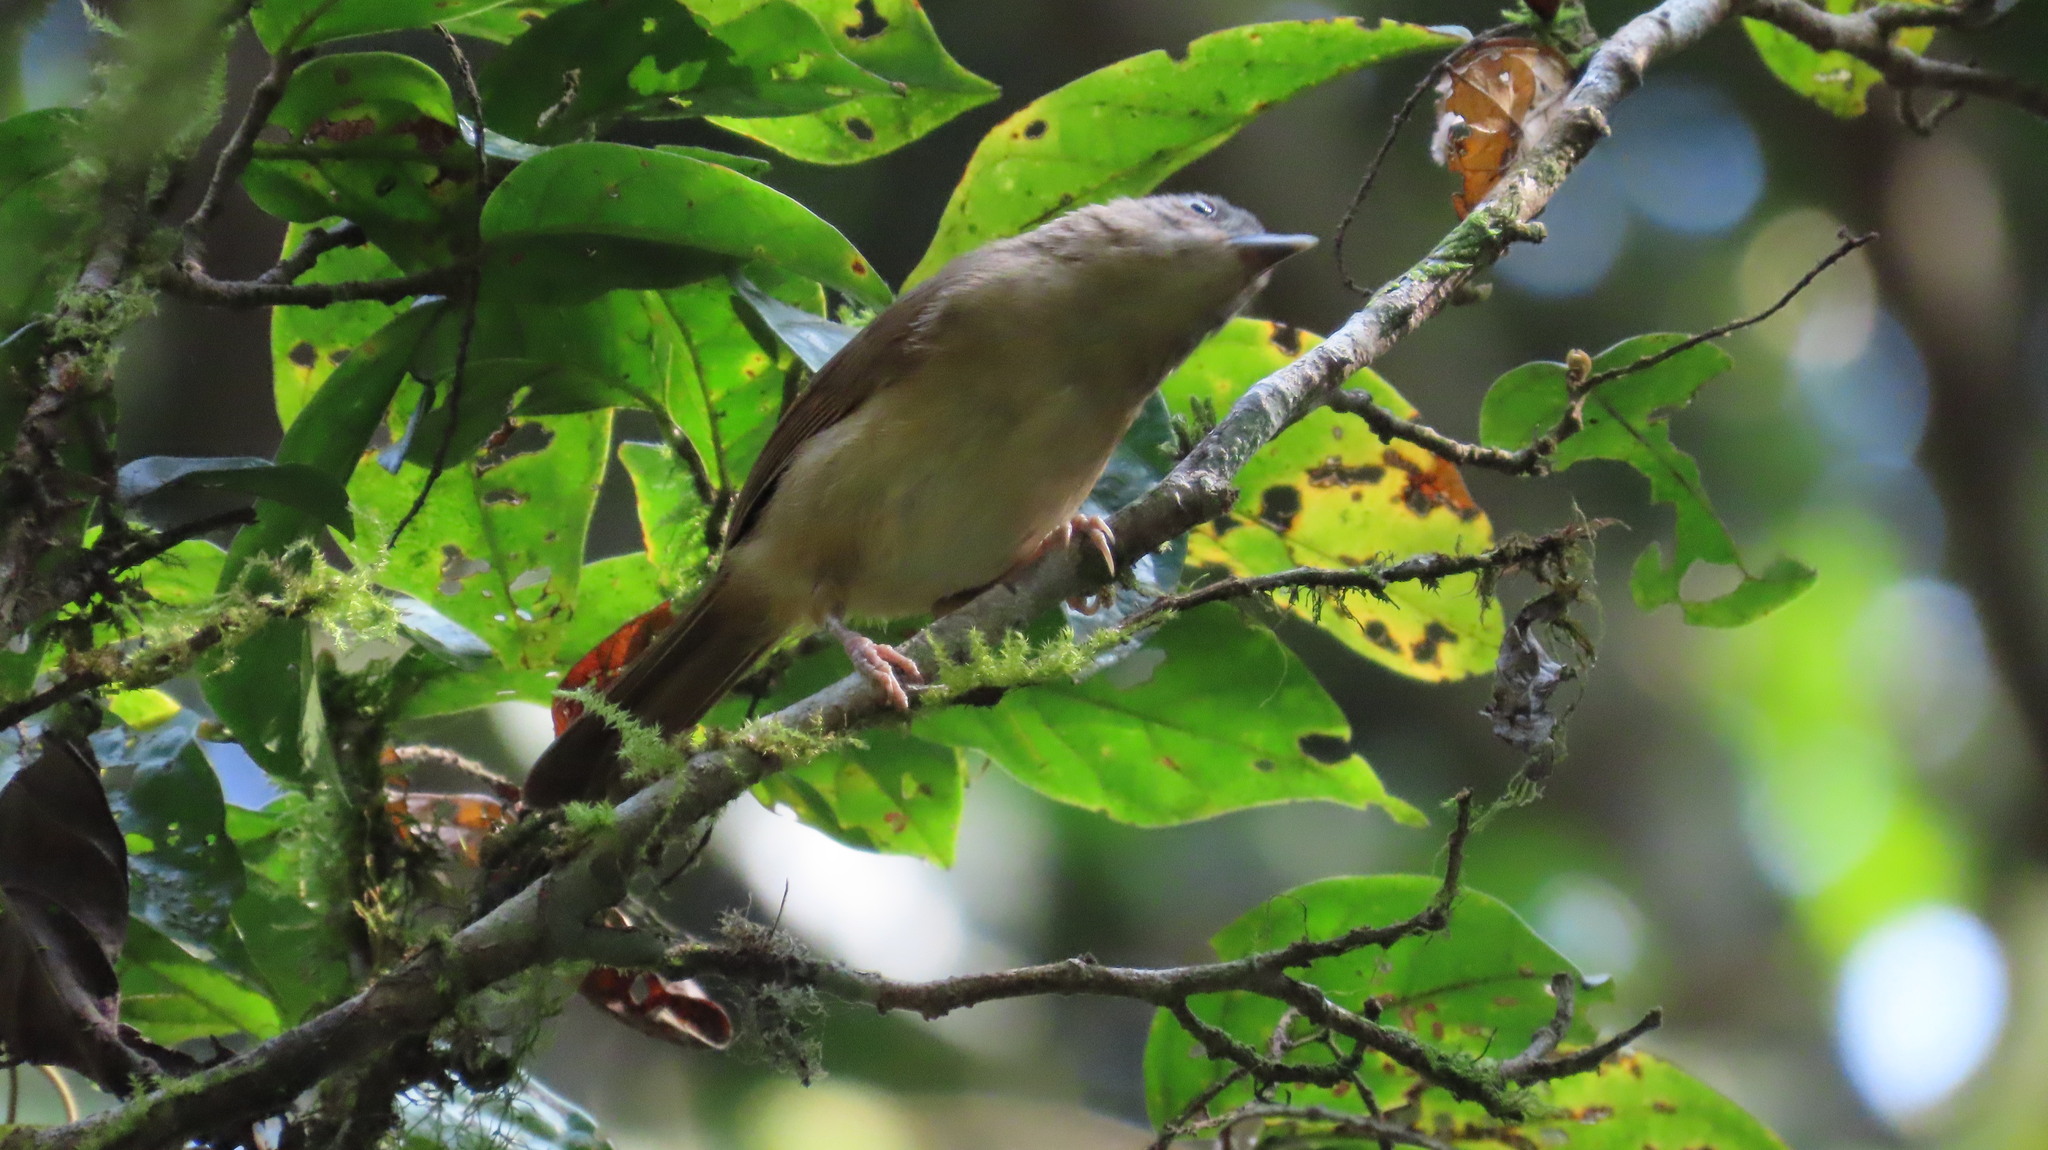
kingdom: Animalia
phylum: Chordata
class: Aves
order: Passeriformes
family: Pellorneidae
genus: Alcippe
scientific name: Alcippe poioicephala
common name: Brown-cheeked fulvetta
